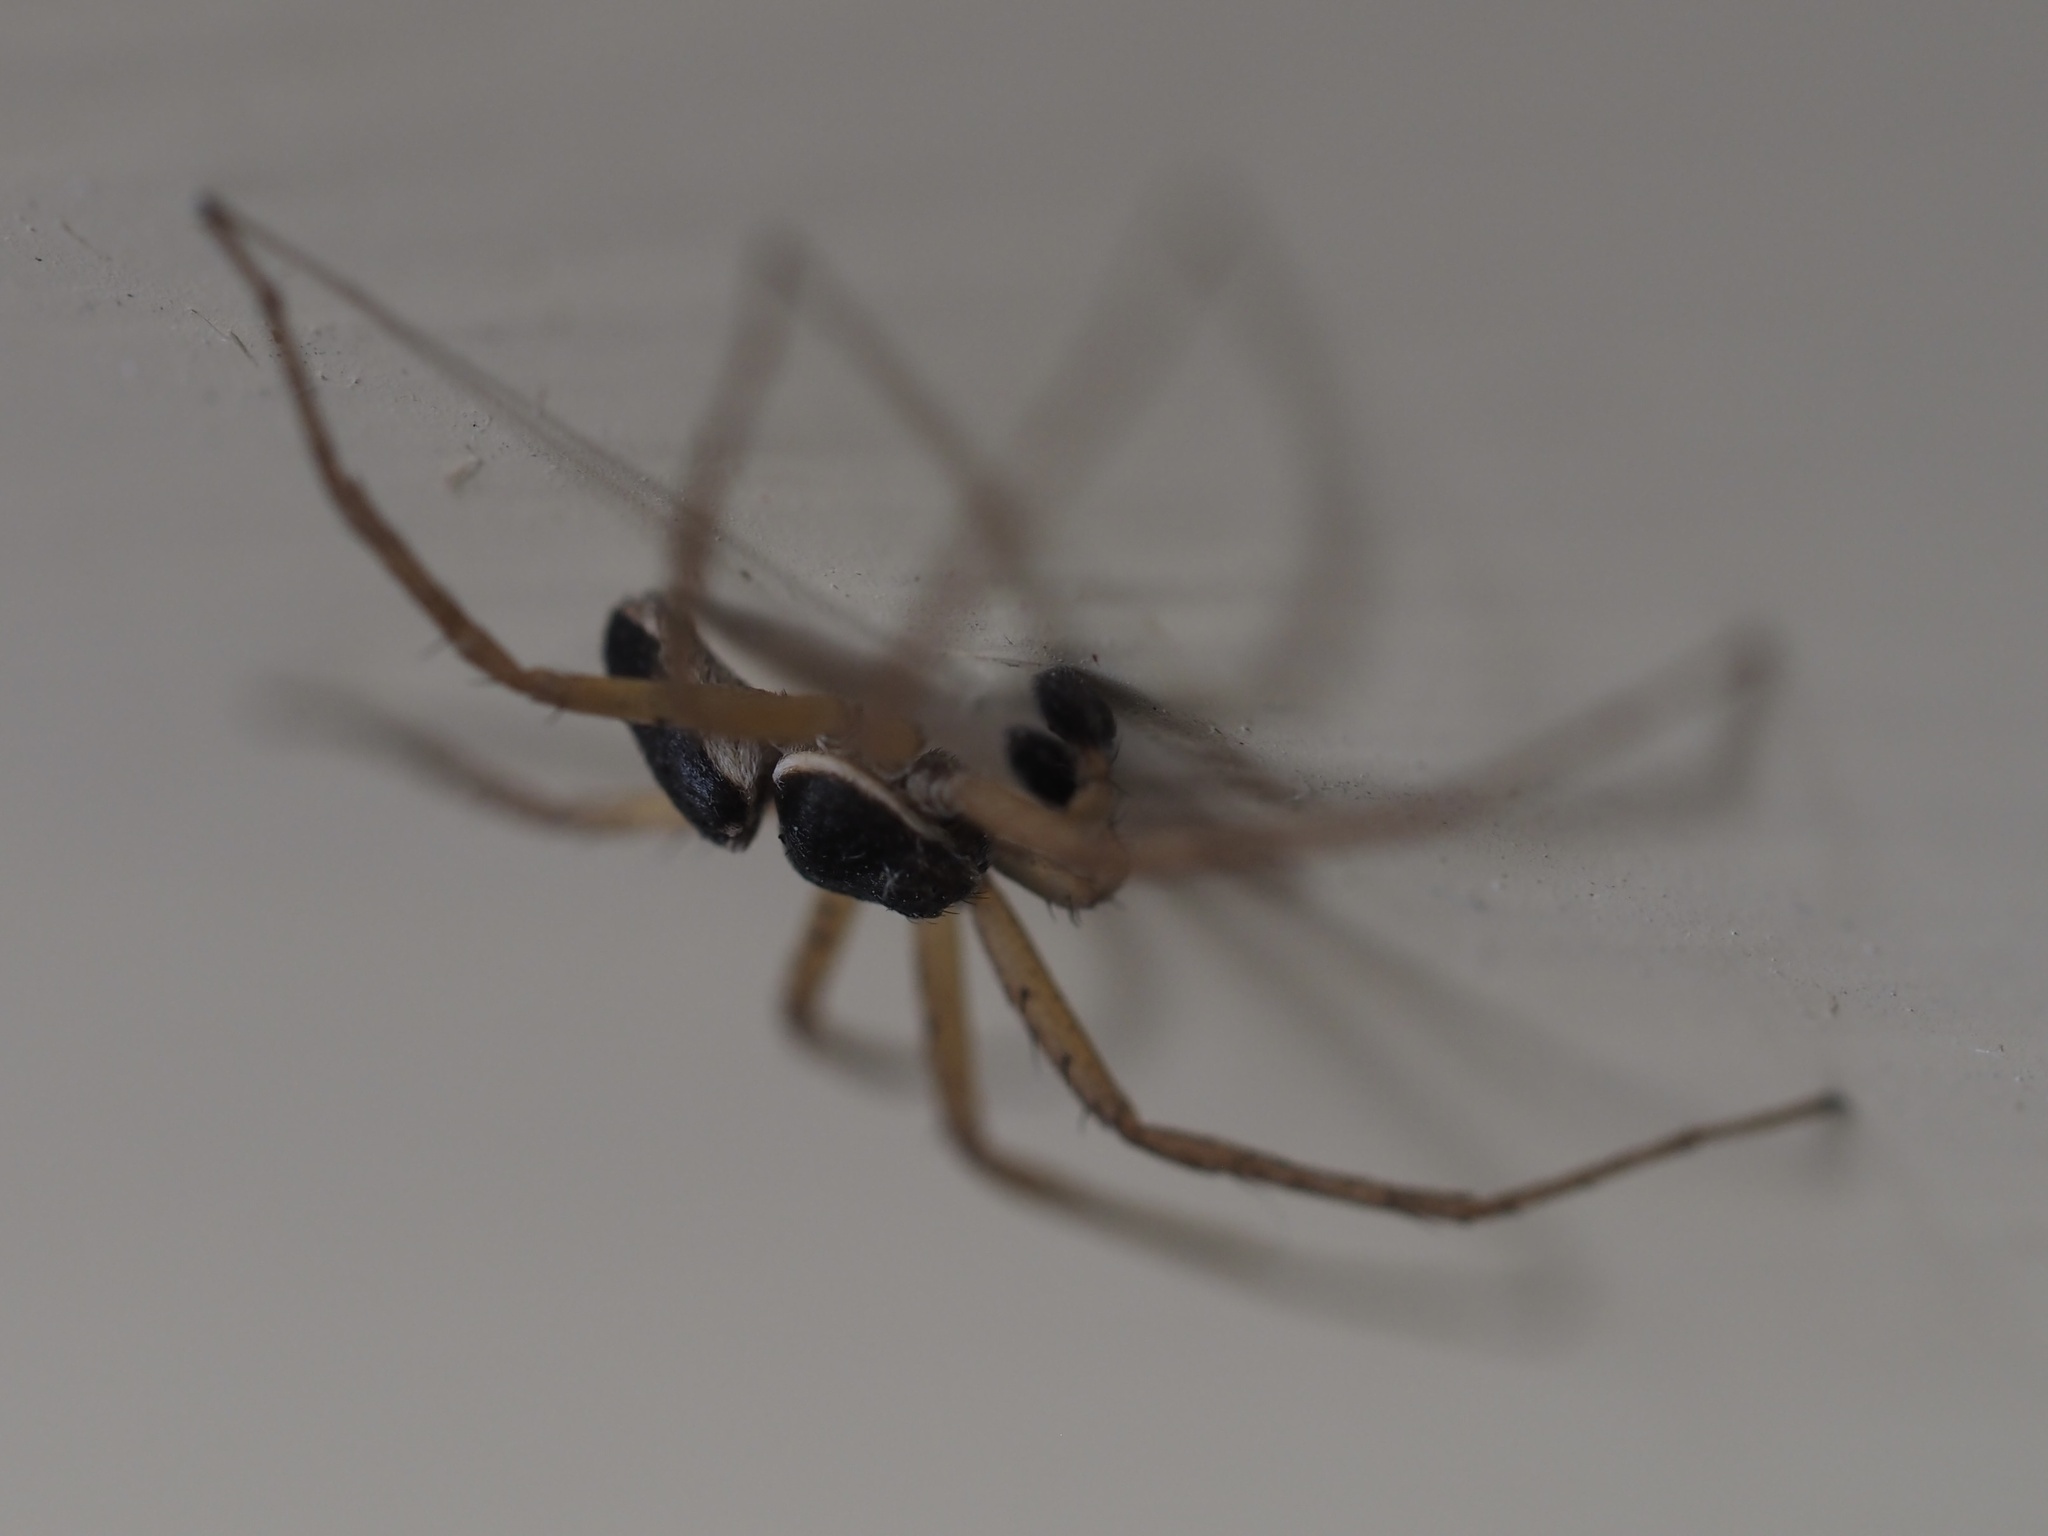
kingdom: Animalia
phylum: Arthropoda
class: Arachnida
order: Araneae
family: Philodromidae
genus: Philodromus
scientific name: Philodromus dispar
